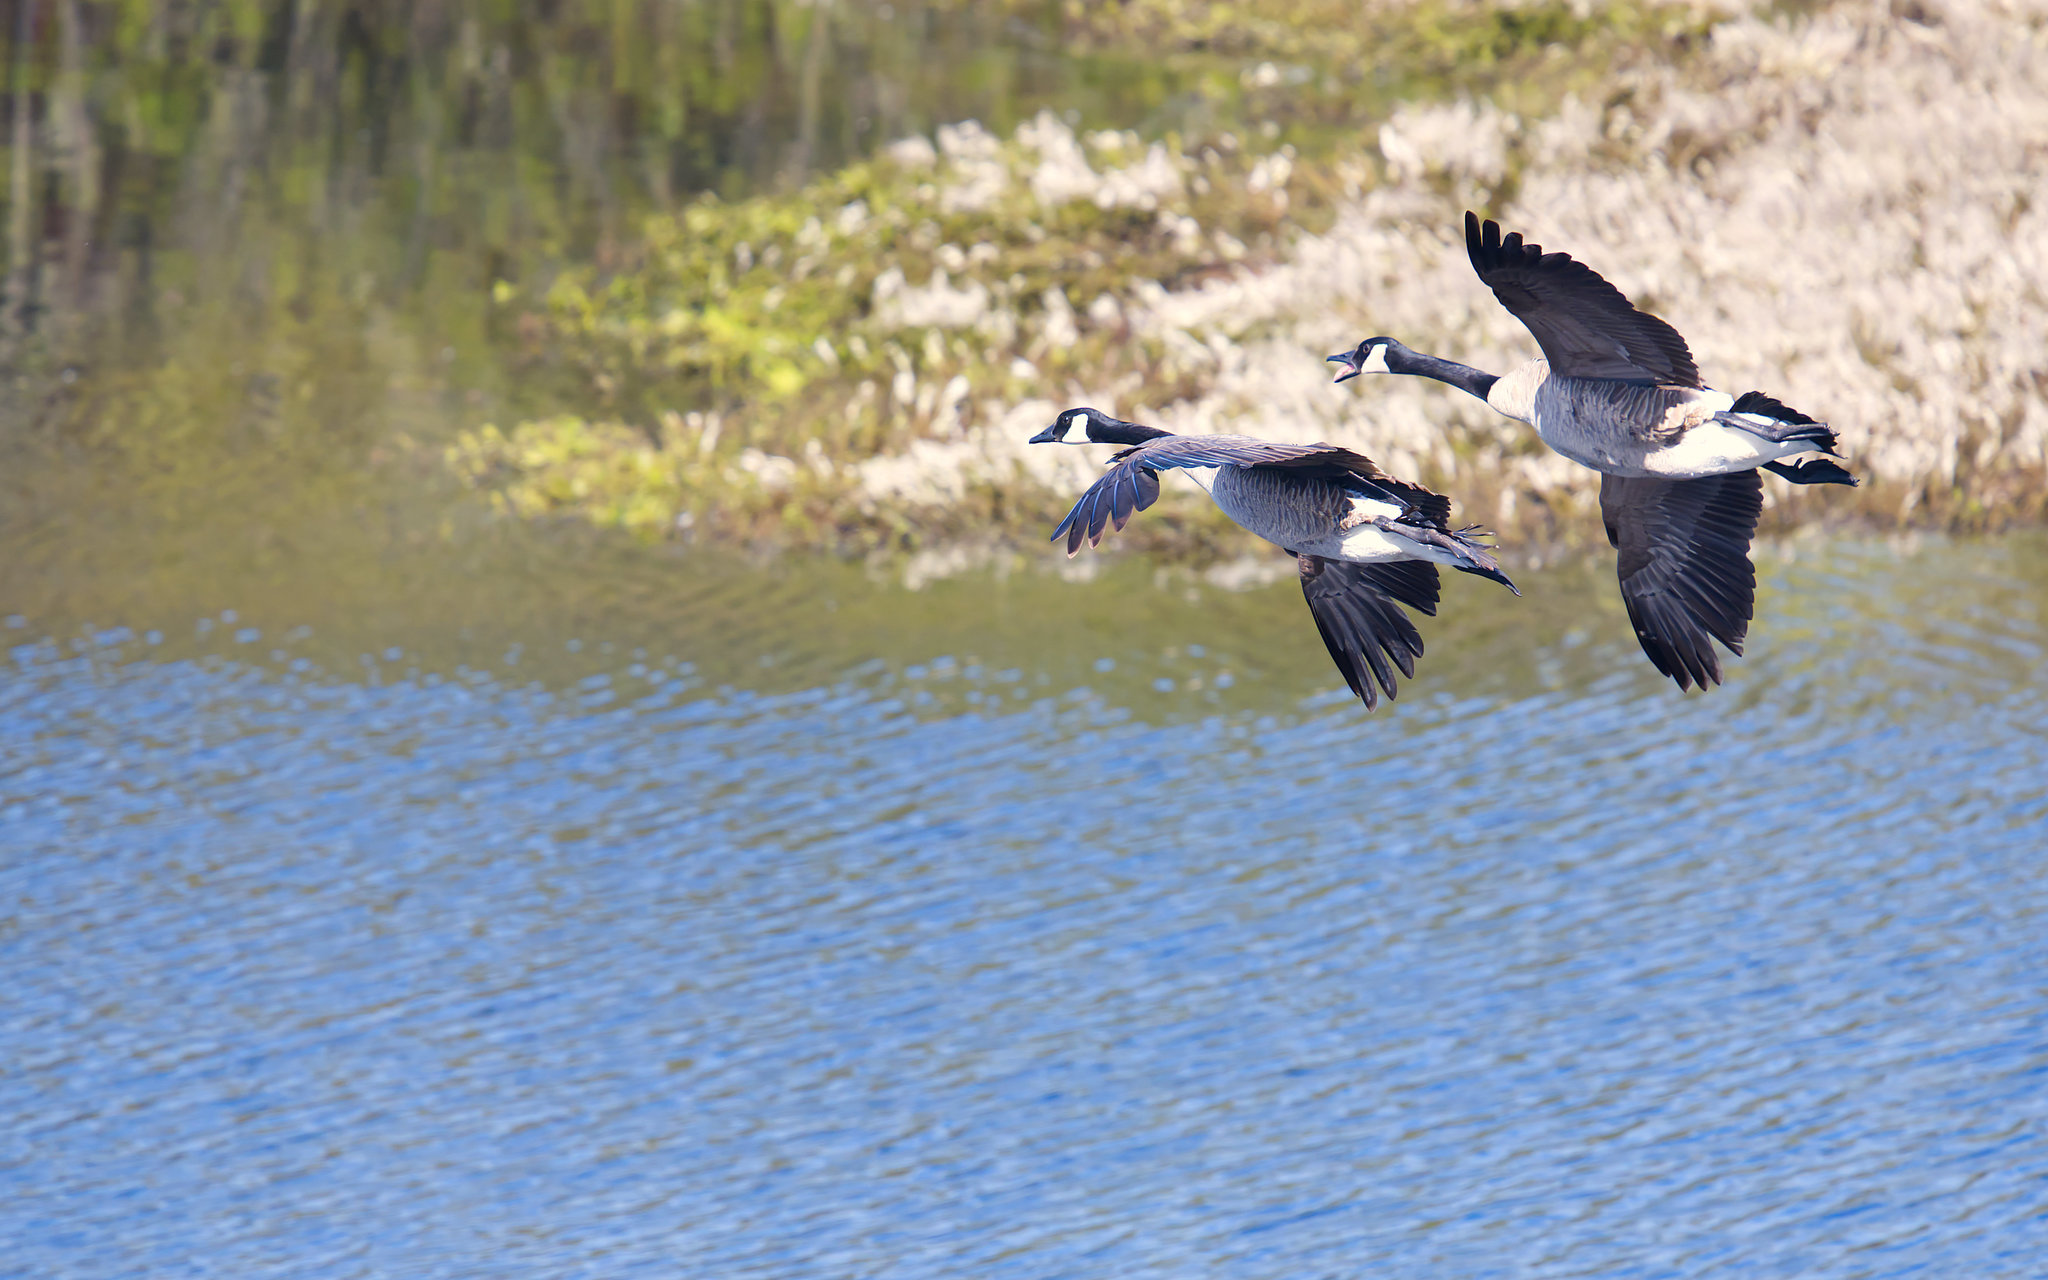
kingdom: Animalia
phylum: Chordata
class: Aves
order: Anseriformes
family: Anatidae
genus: Branta
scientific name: Branta canadensis
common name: Canada goose
